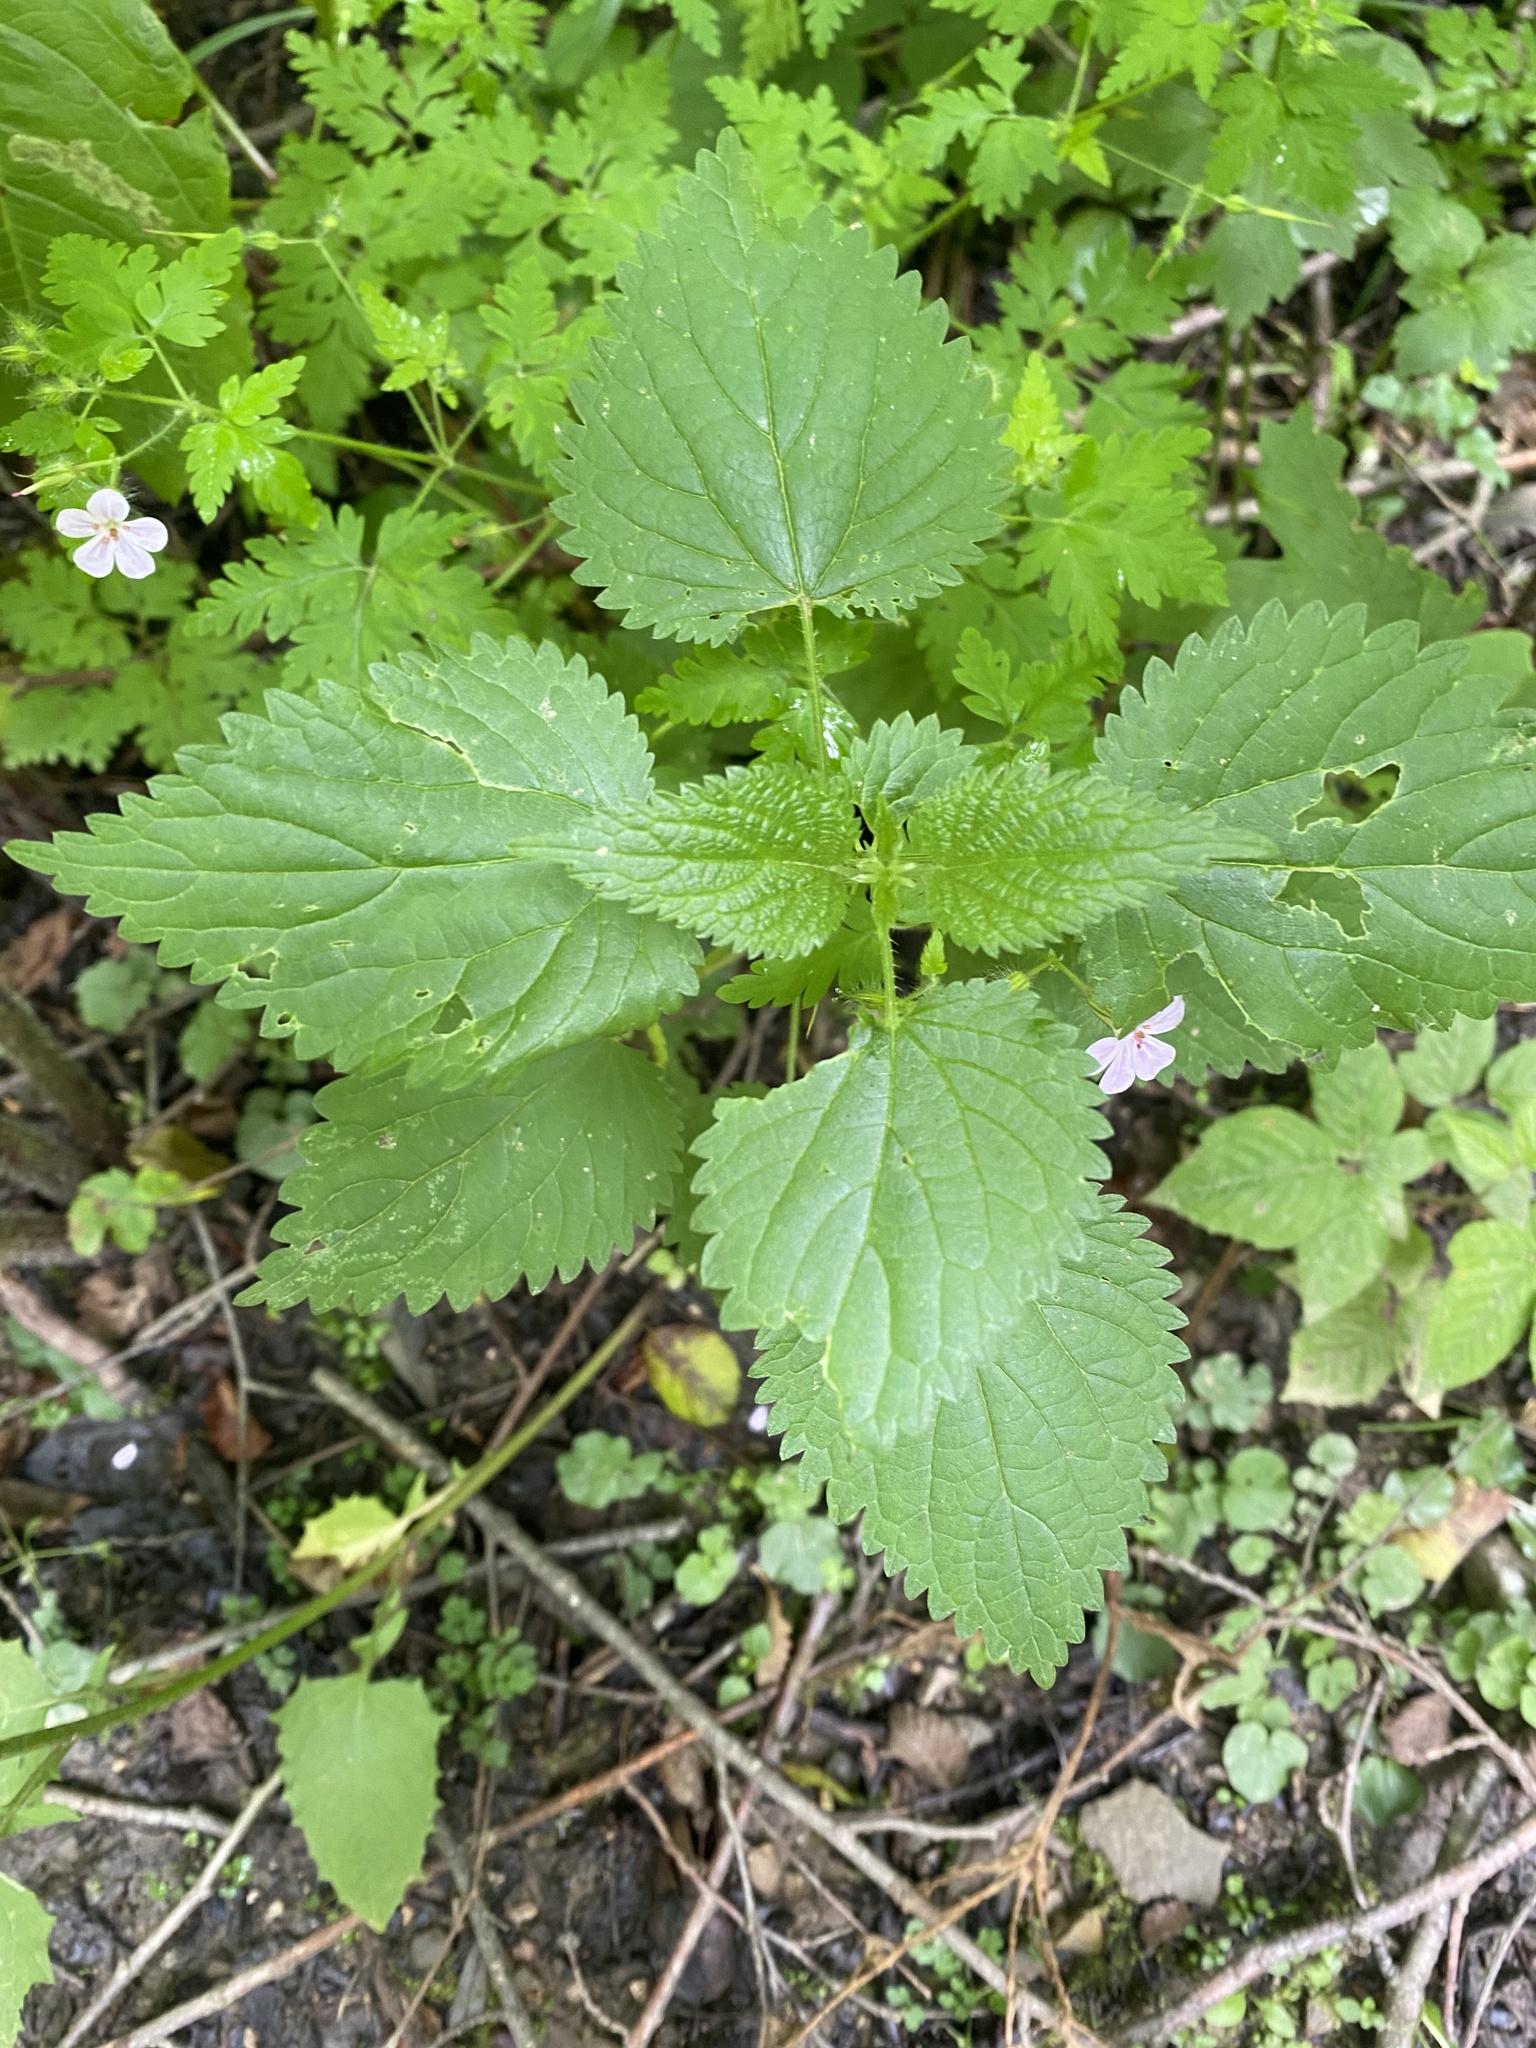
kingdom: Plantae
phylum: Tracheophyta
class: Magnoliopsida
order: Rosales
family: Urticaceae
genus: Urtica
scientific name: Urtica dioica
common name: Common nettle
